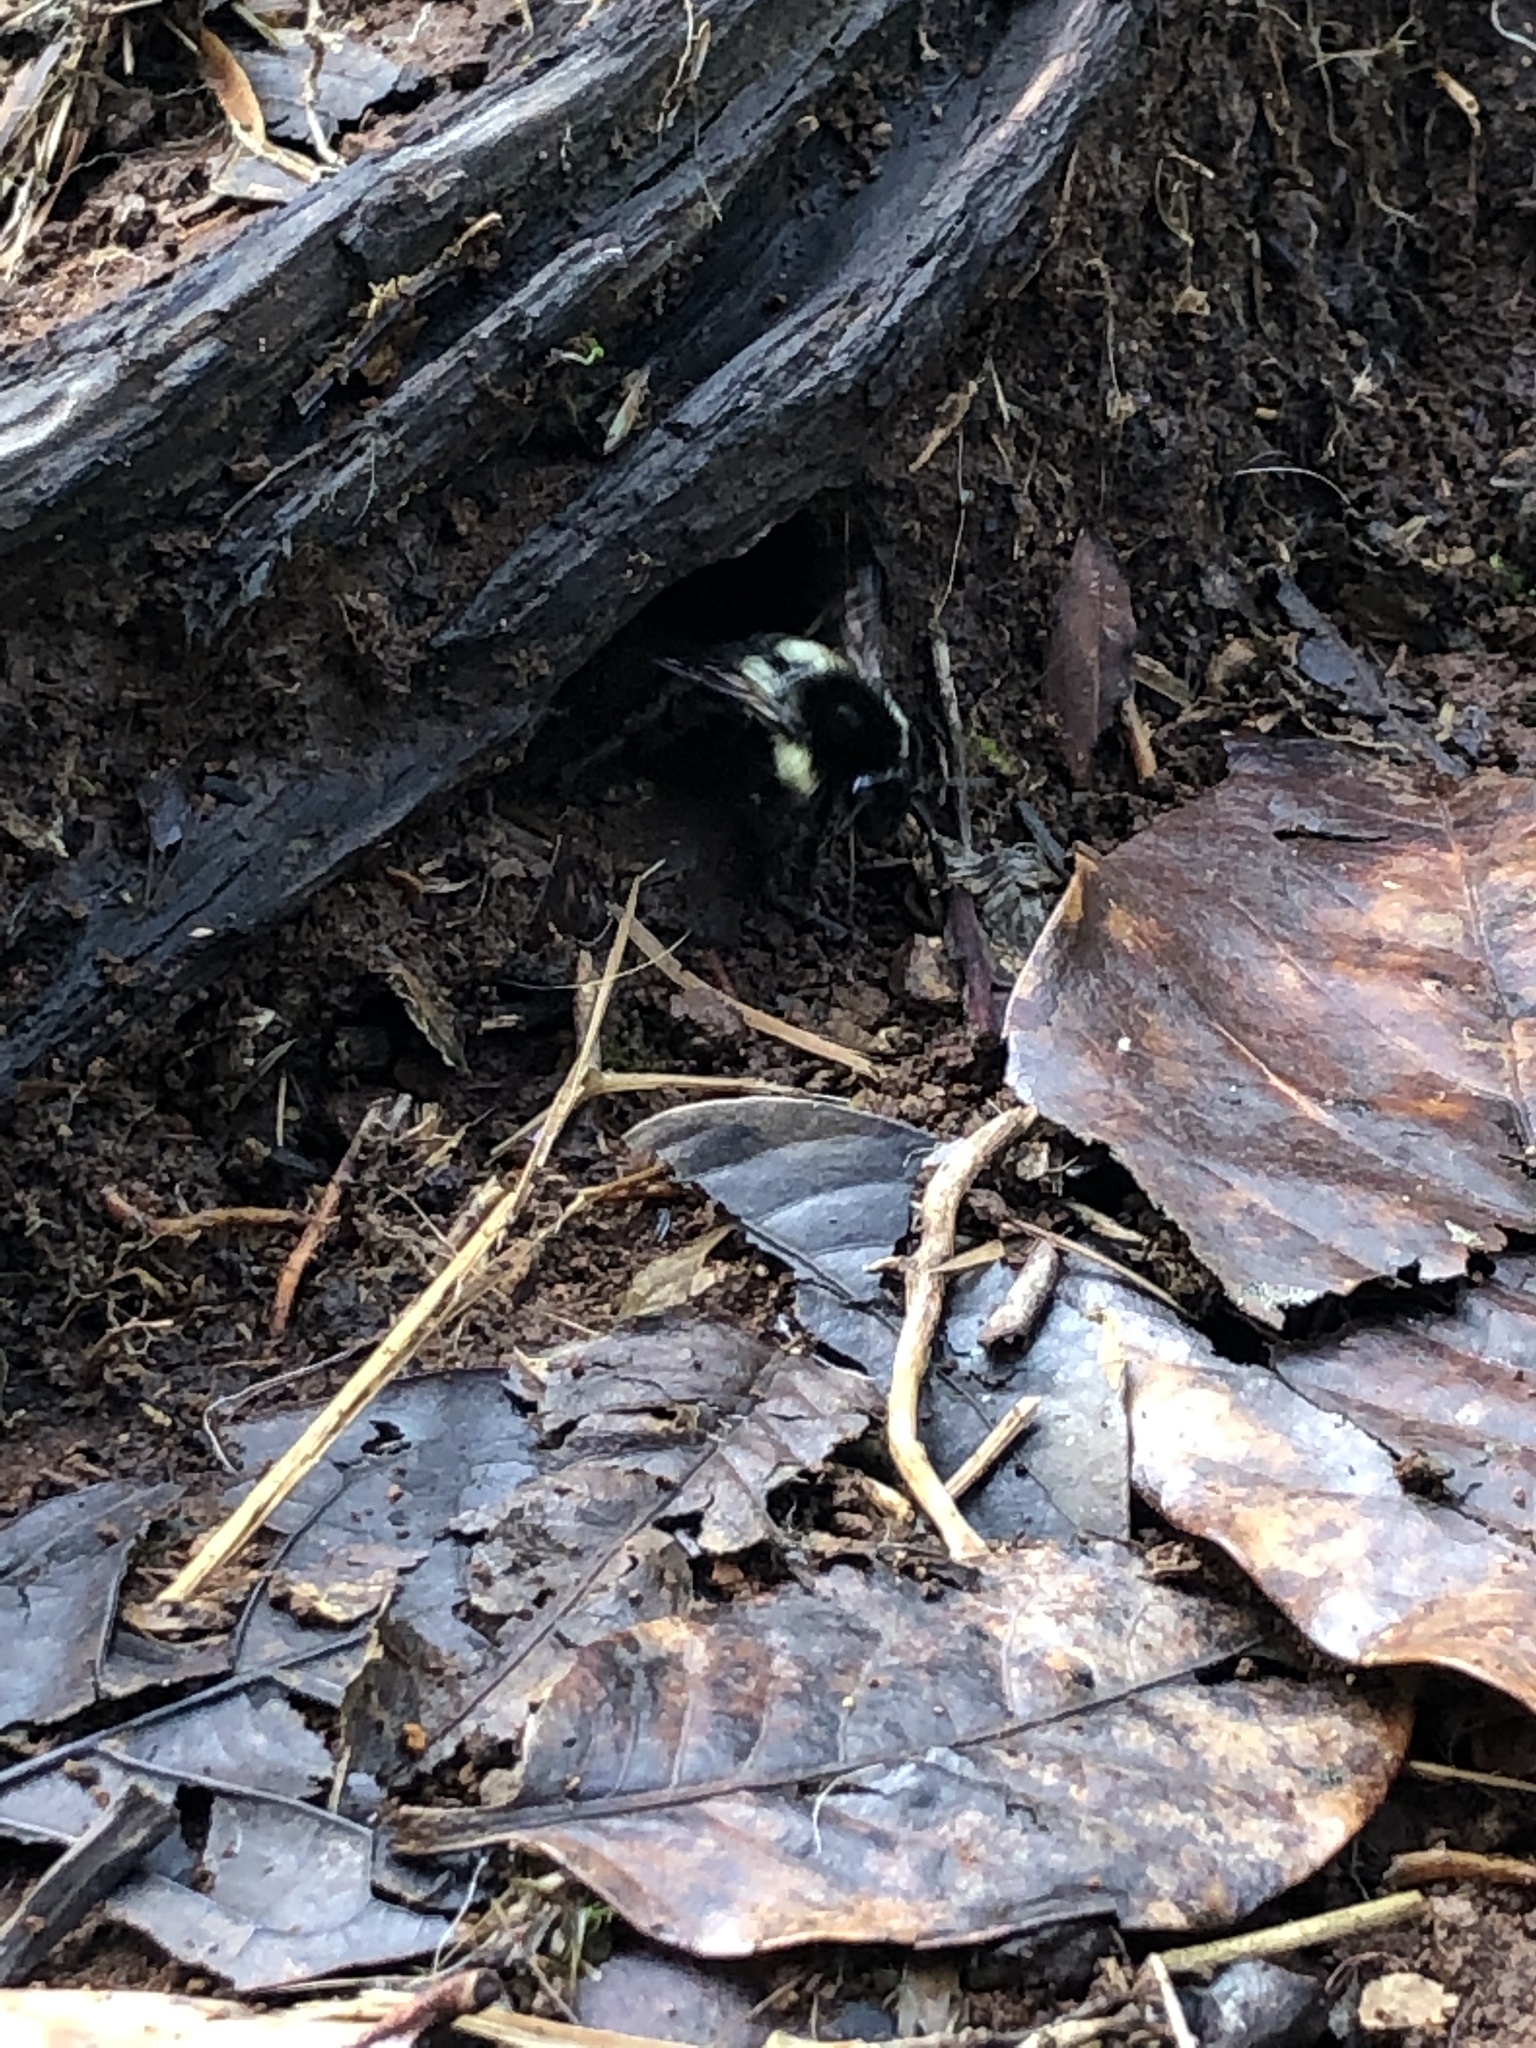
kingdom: Animalia
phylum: Arthropoda
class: Insecta
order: Hymenoptera
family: Apidae
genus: Bombus
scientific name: Bombus ephippiatus
